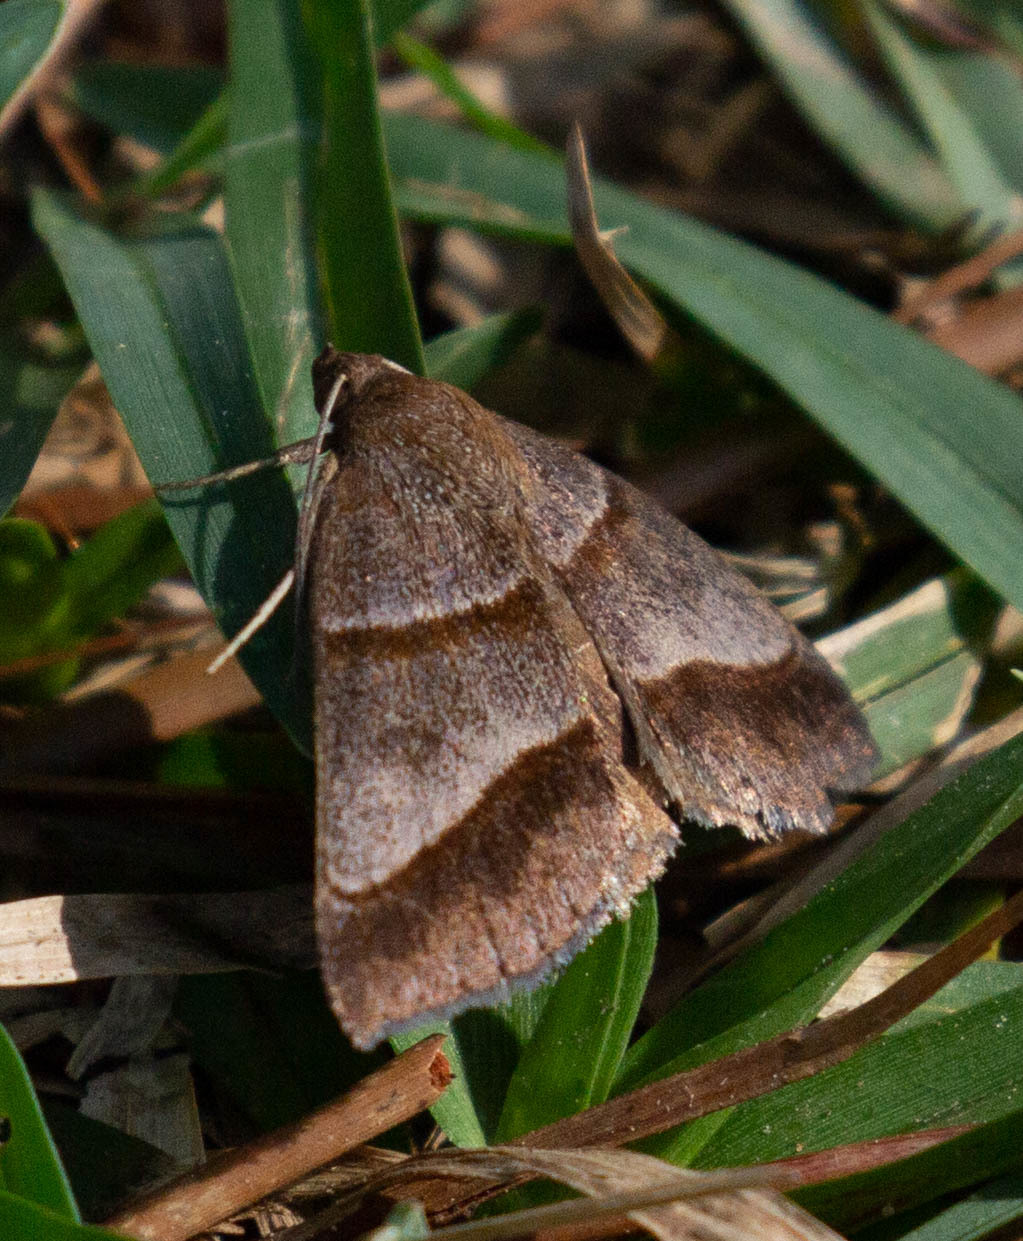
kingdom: Animalia
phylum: Arthropoda
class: Insecta
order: Lepidoptera
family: Erebidae
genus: Argyrostrotis
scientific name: Argyrostrotis sylvarum
